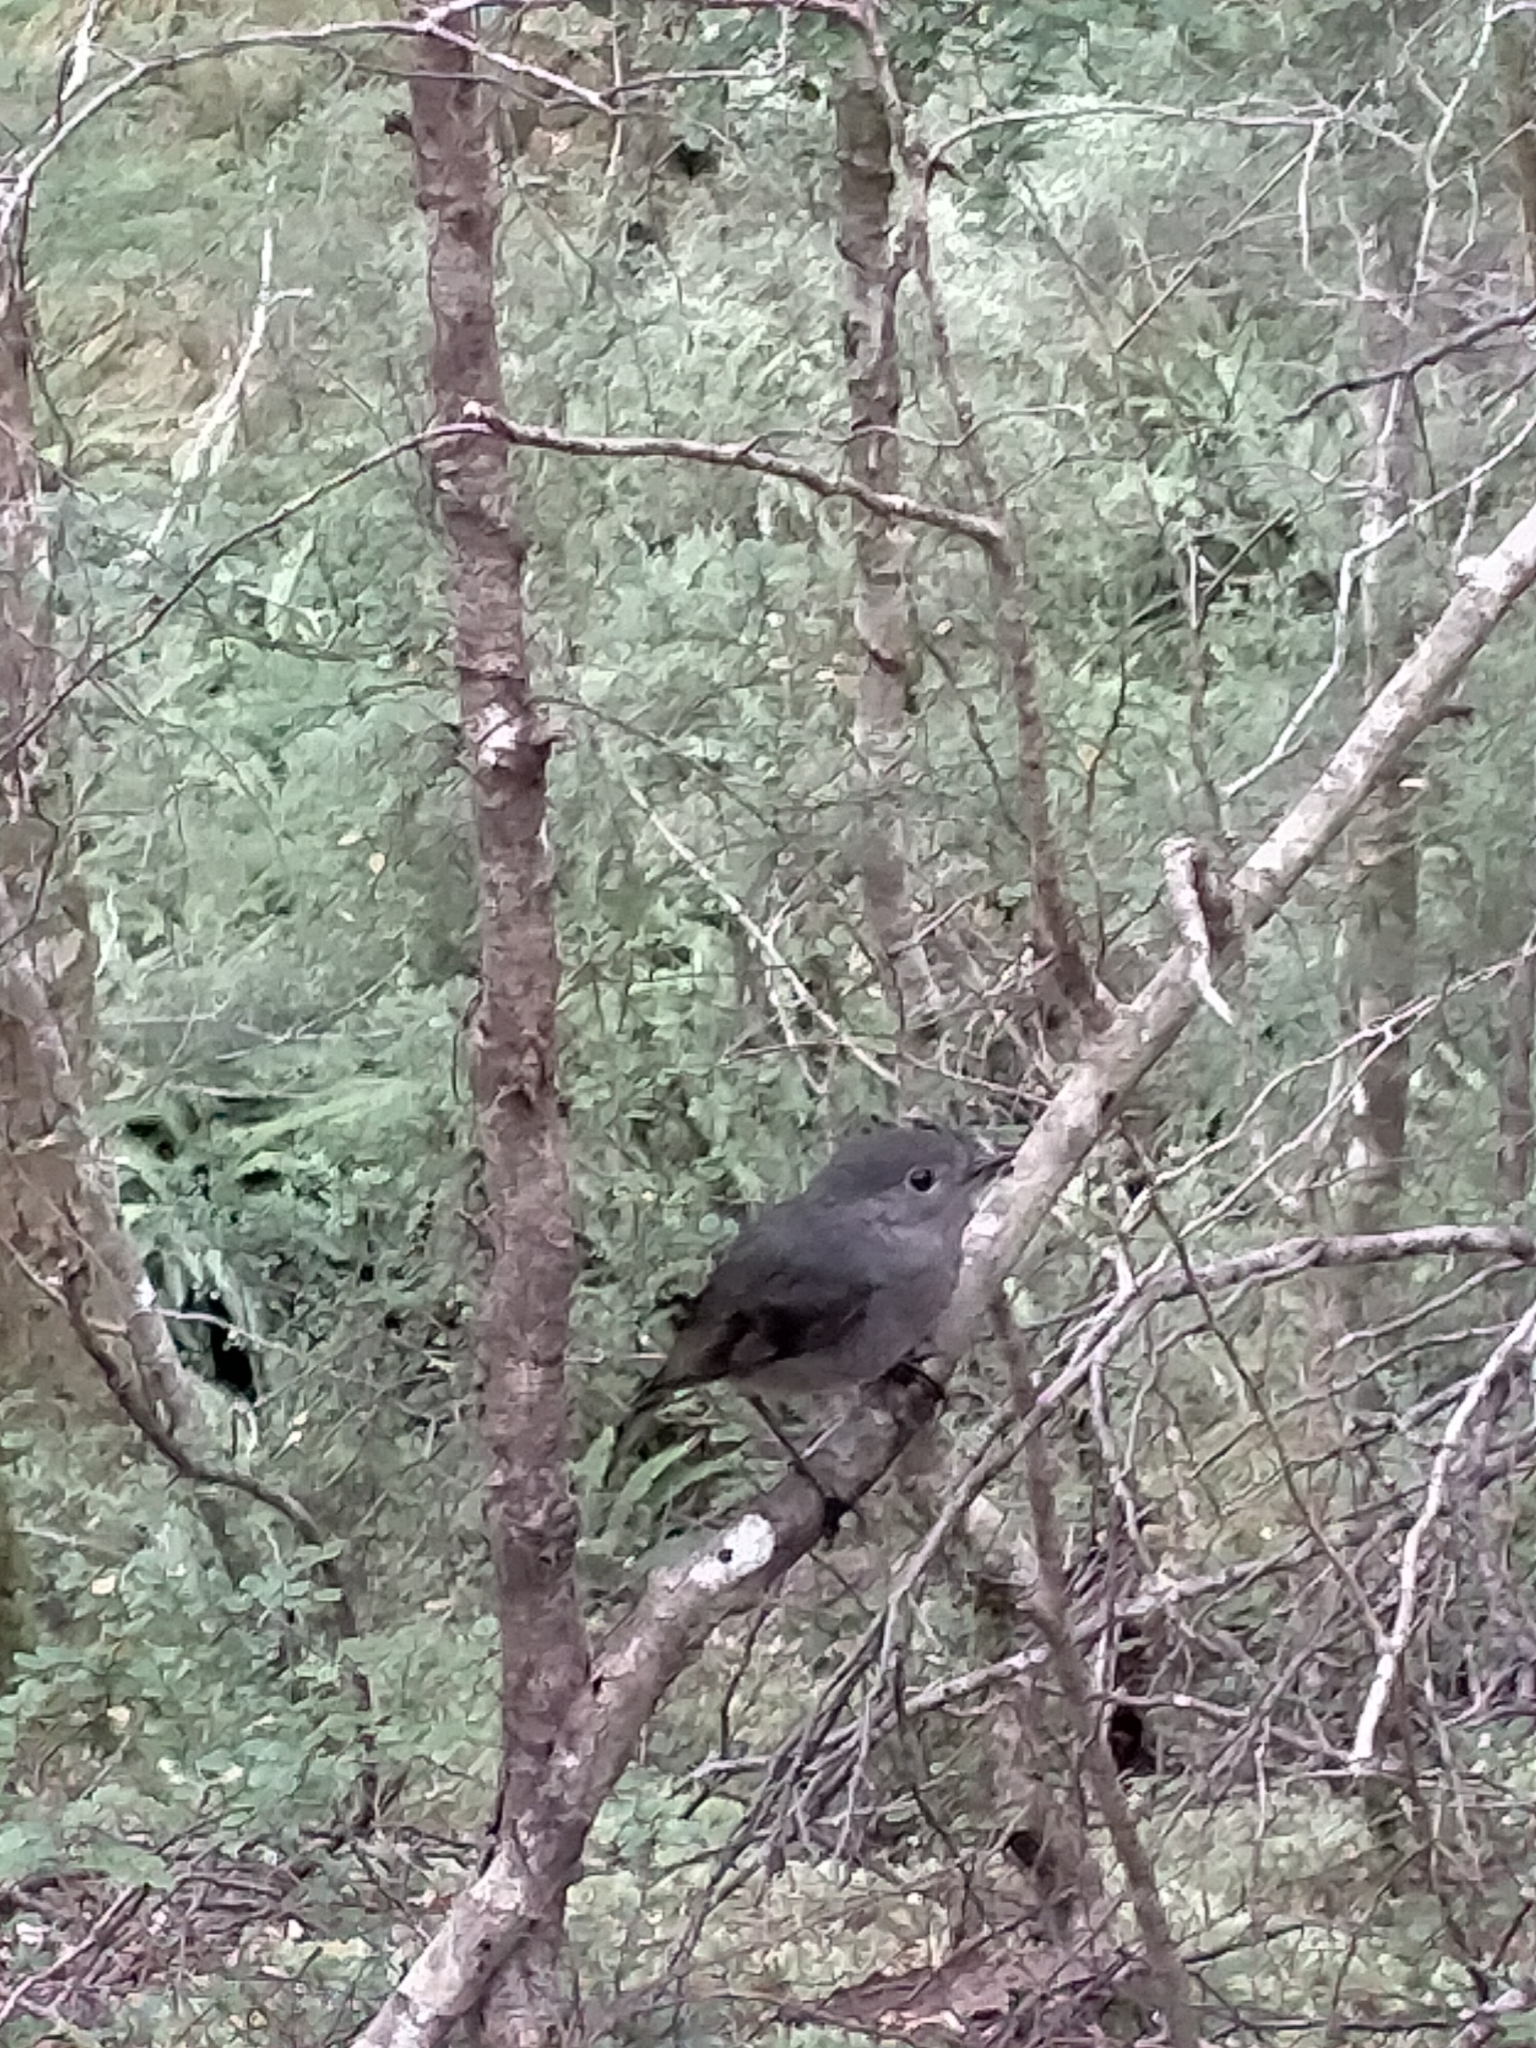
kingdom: Animalia
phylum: Chordata
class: Aves
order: Passeriformes
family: Petroicidae
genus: Petroica
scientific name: Petroica australis
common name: New zealand robin
